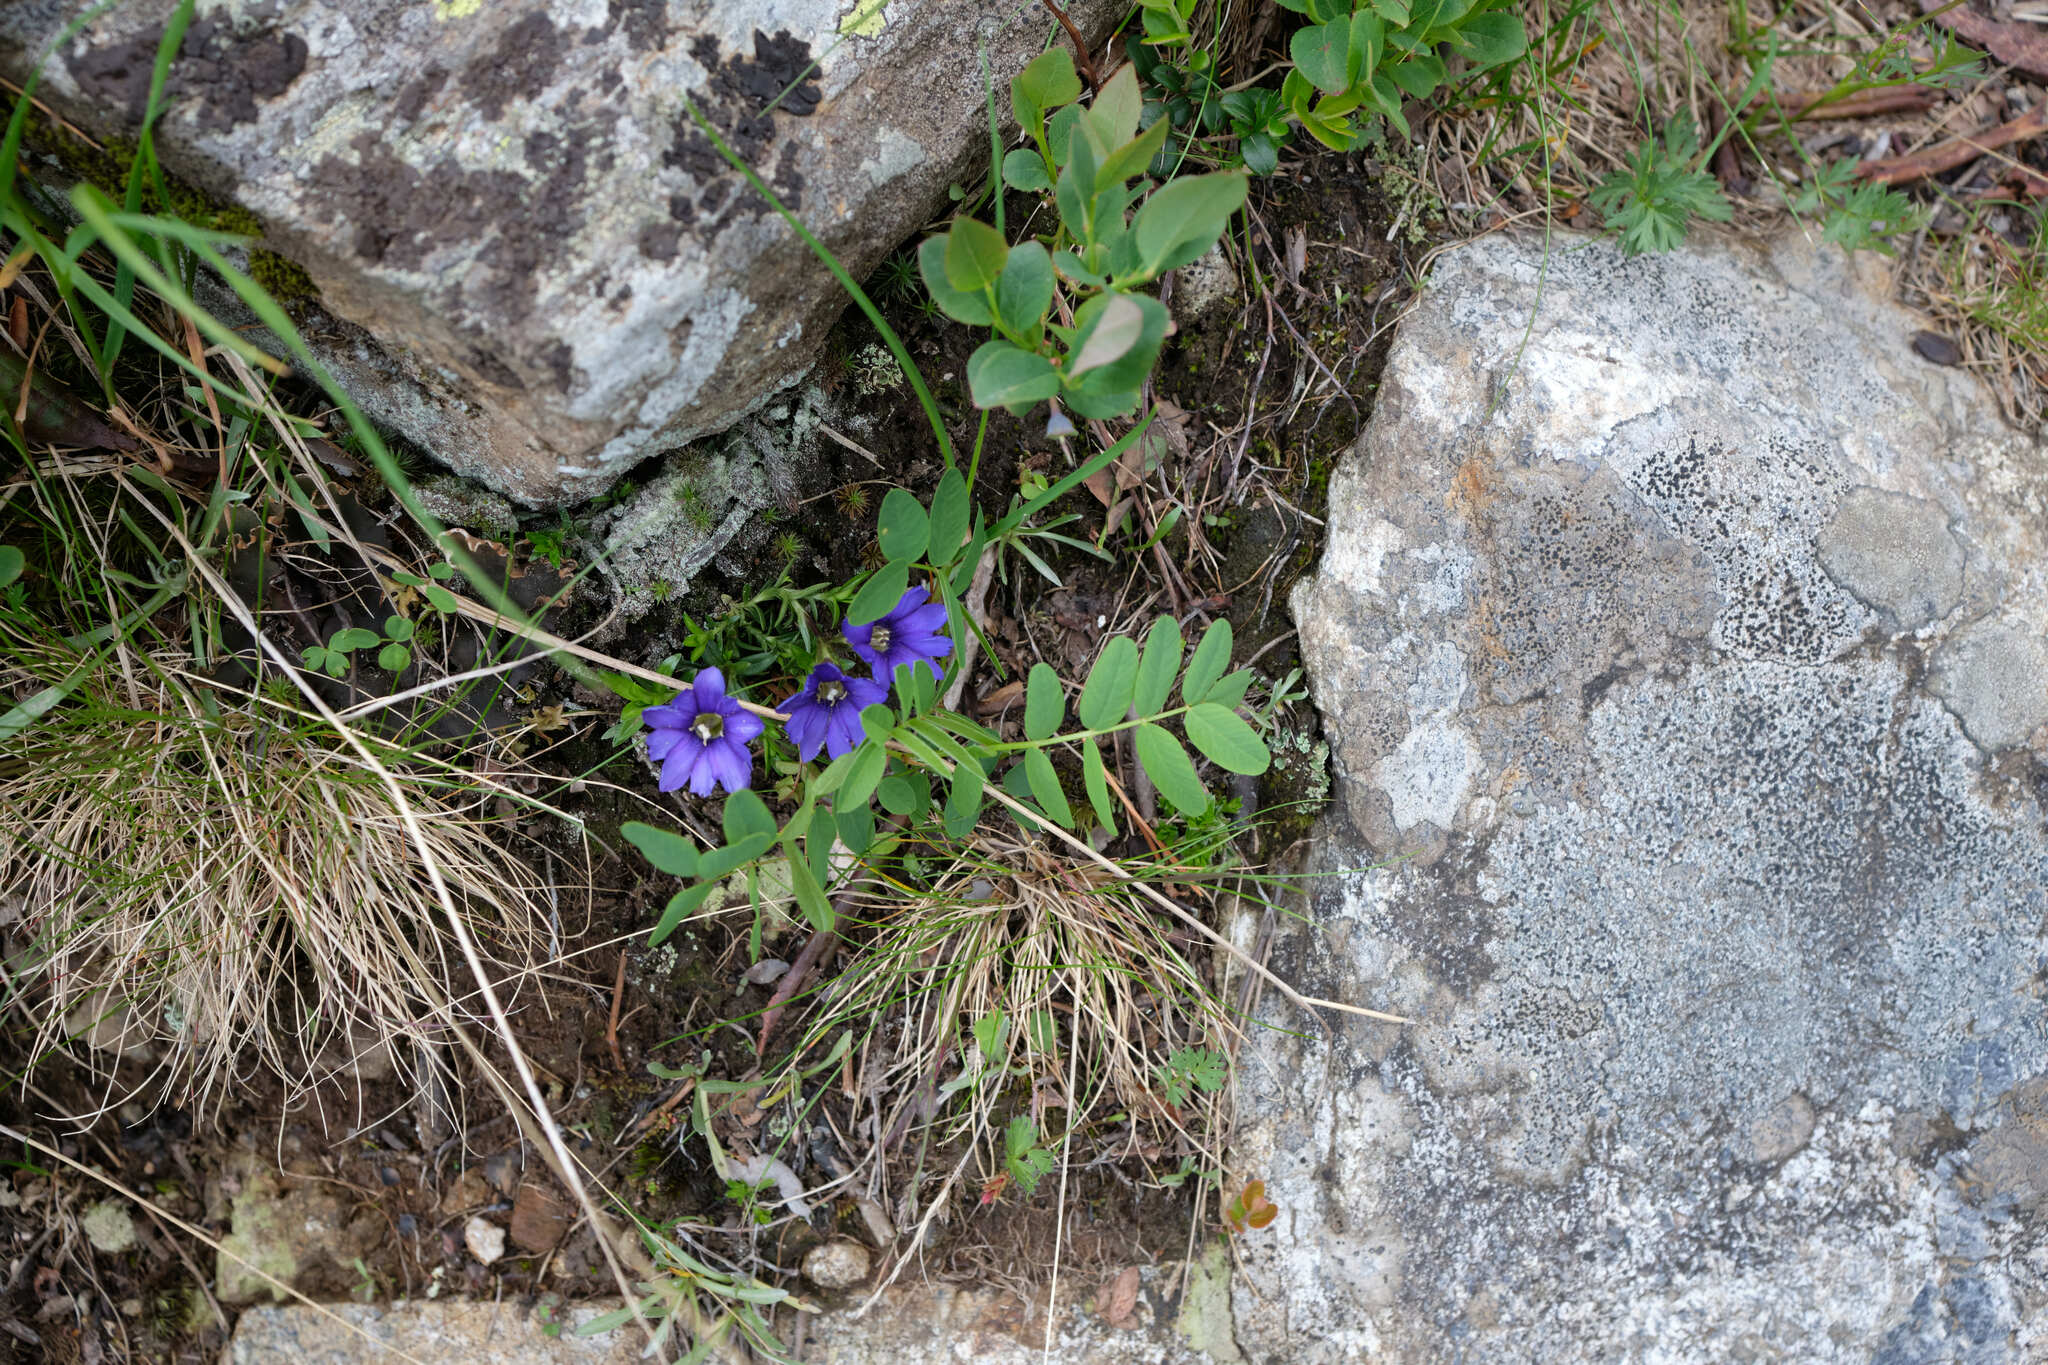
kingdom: Plantae
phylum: Tracheophyta
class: Magnoliopsida
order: Gentianales
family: Gentianaceae
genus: Gentiana
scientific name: Gentiana dshimilensis
